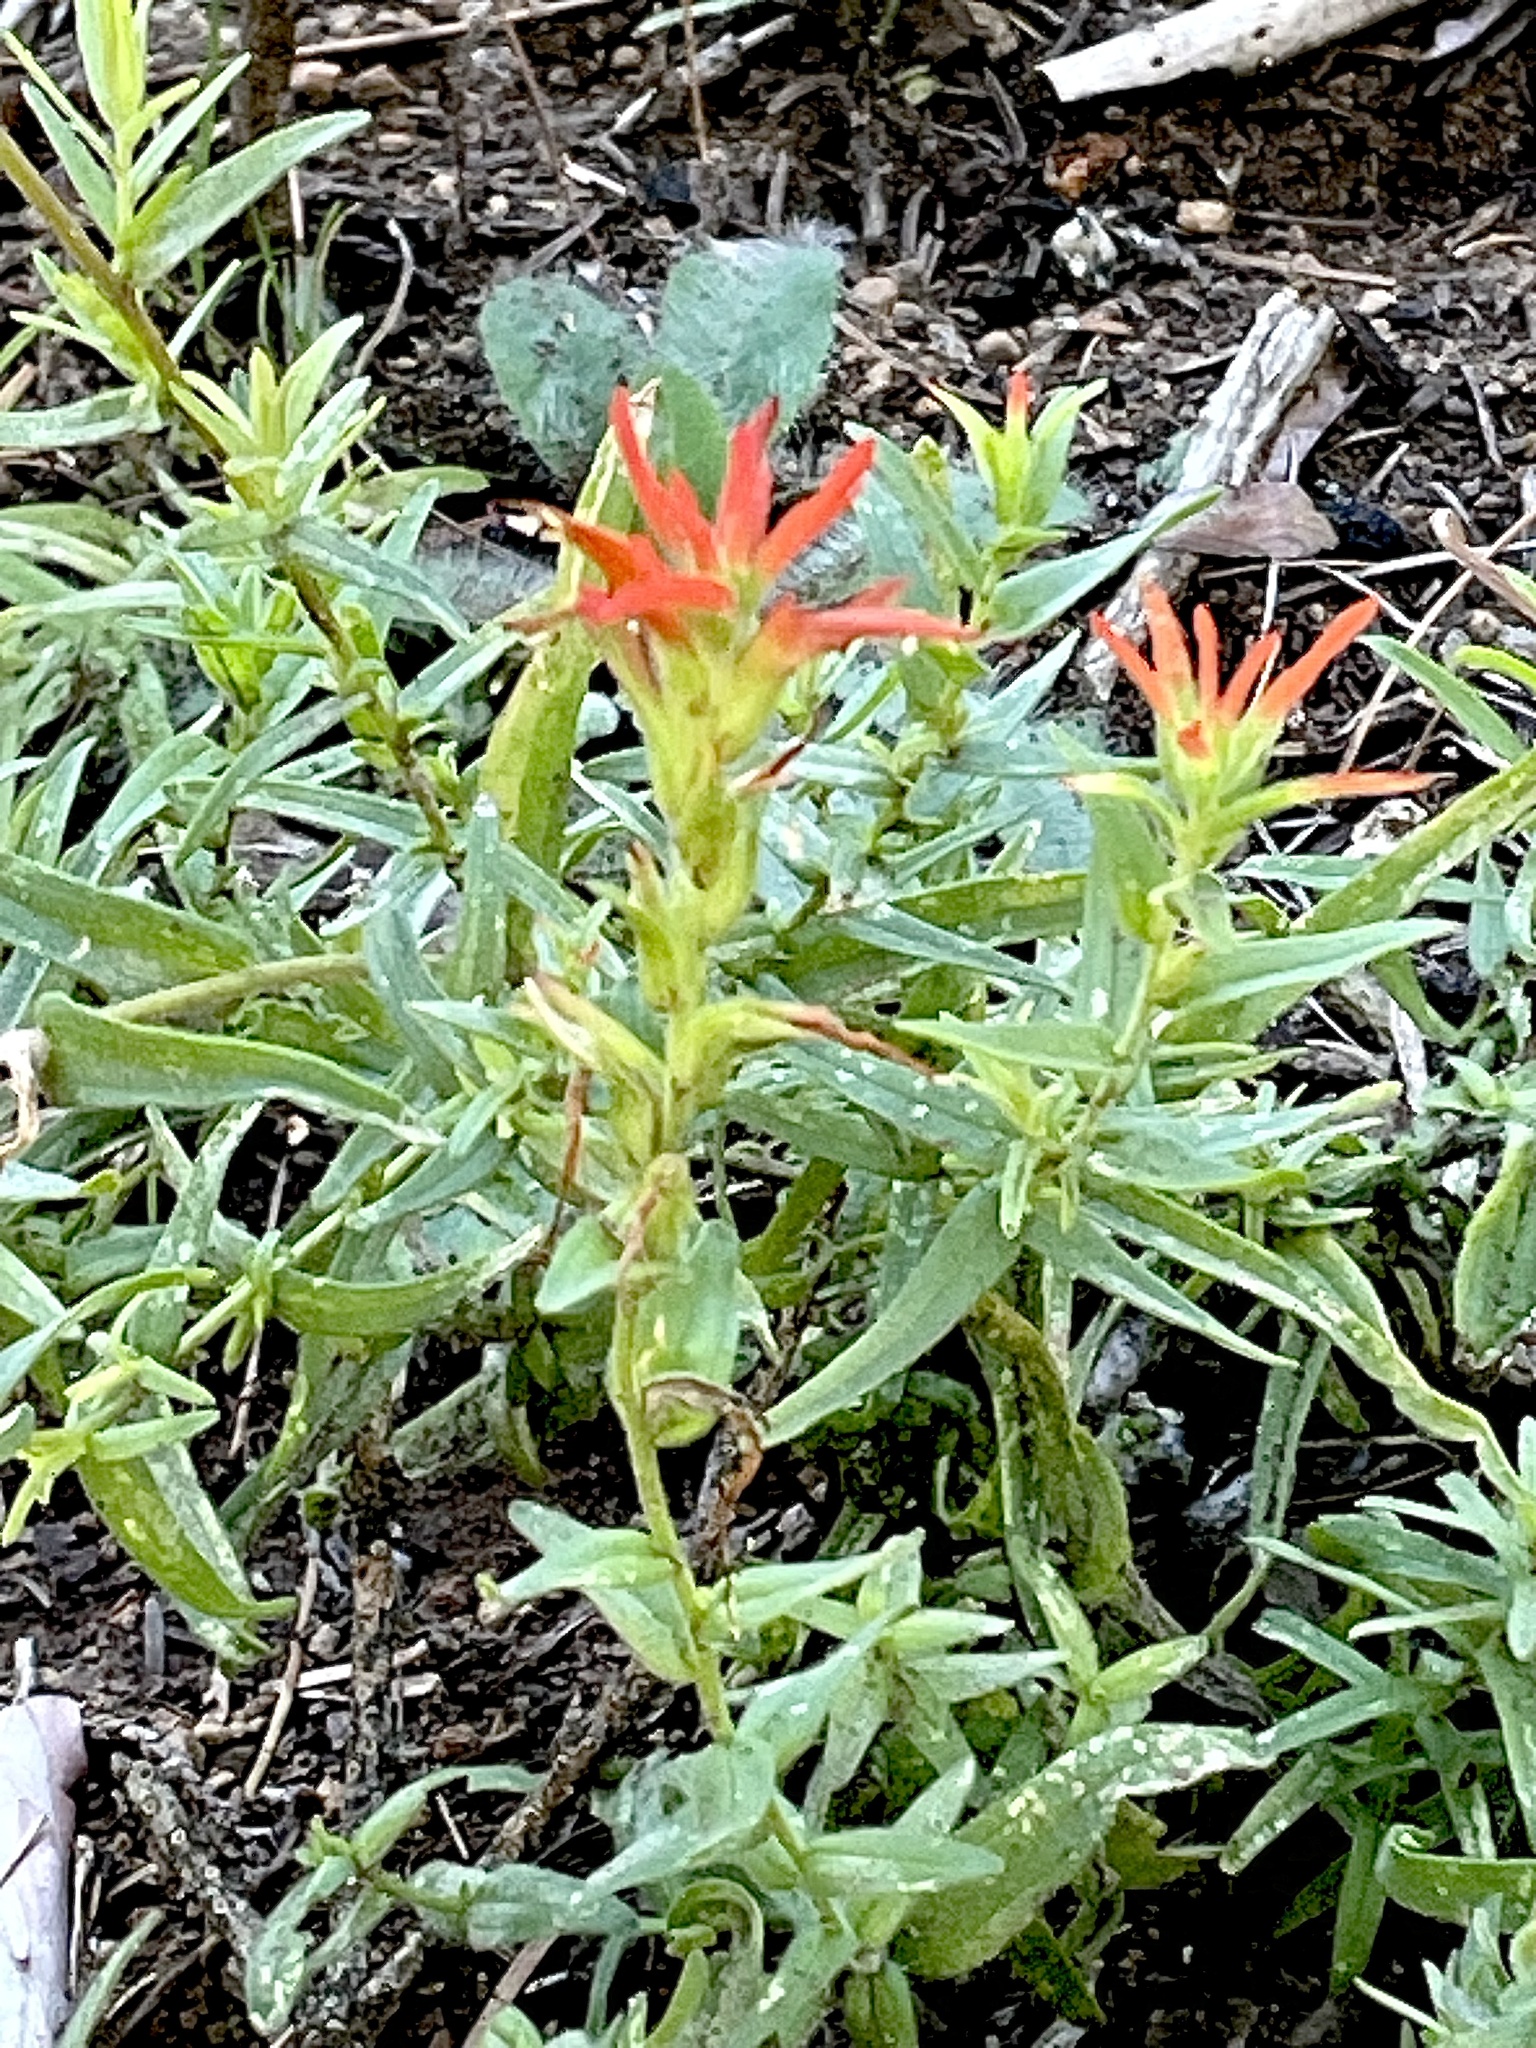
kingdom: Plantae
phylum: Tracheophyta
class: Magnoliopsida
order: Lamiales
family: Orobanchaceae
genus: Castilleja
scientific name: Castilleja disticha
